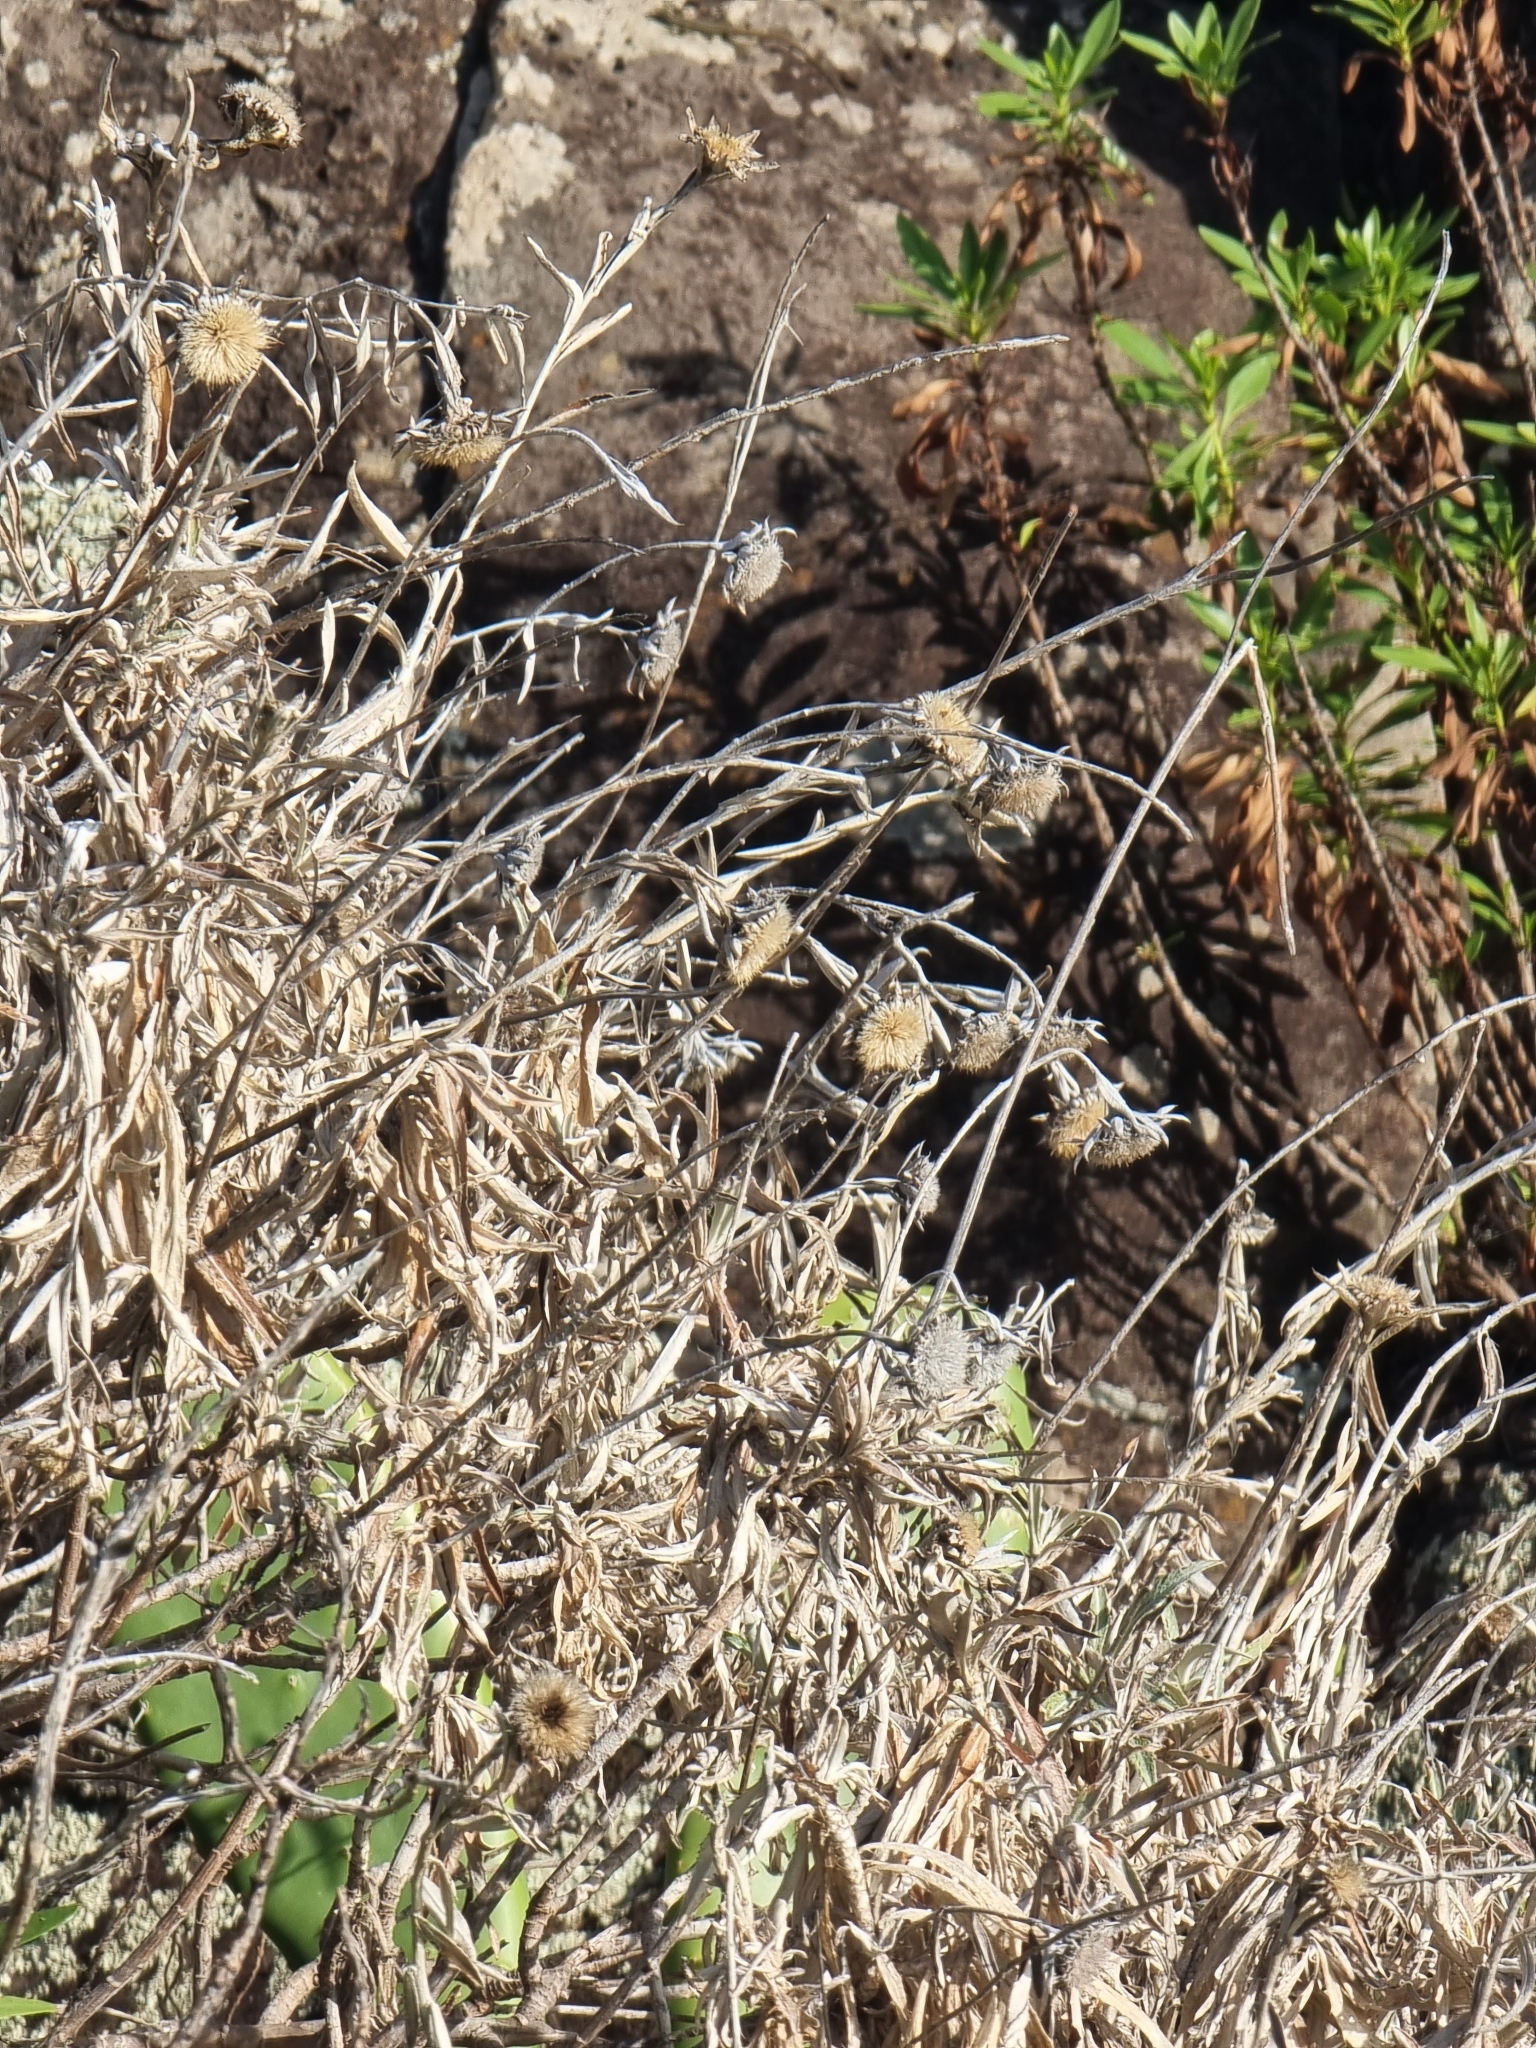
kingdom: Plantae
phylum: Tracheophyta
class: Magnoliopsida
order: Asterales
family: Asteraceae
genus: Carlina
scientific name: Carlina salicifolia
